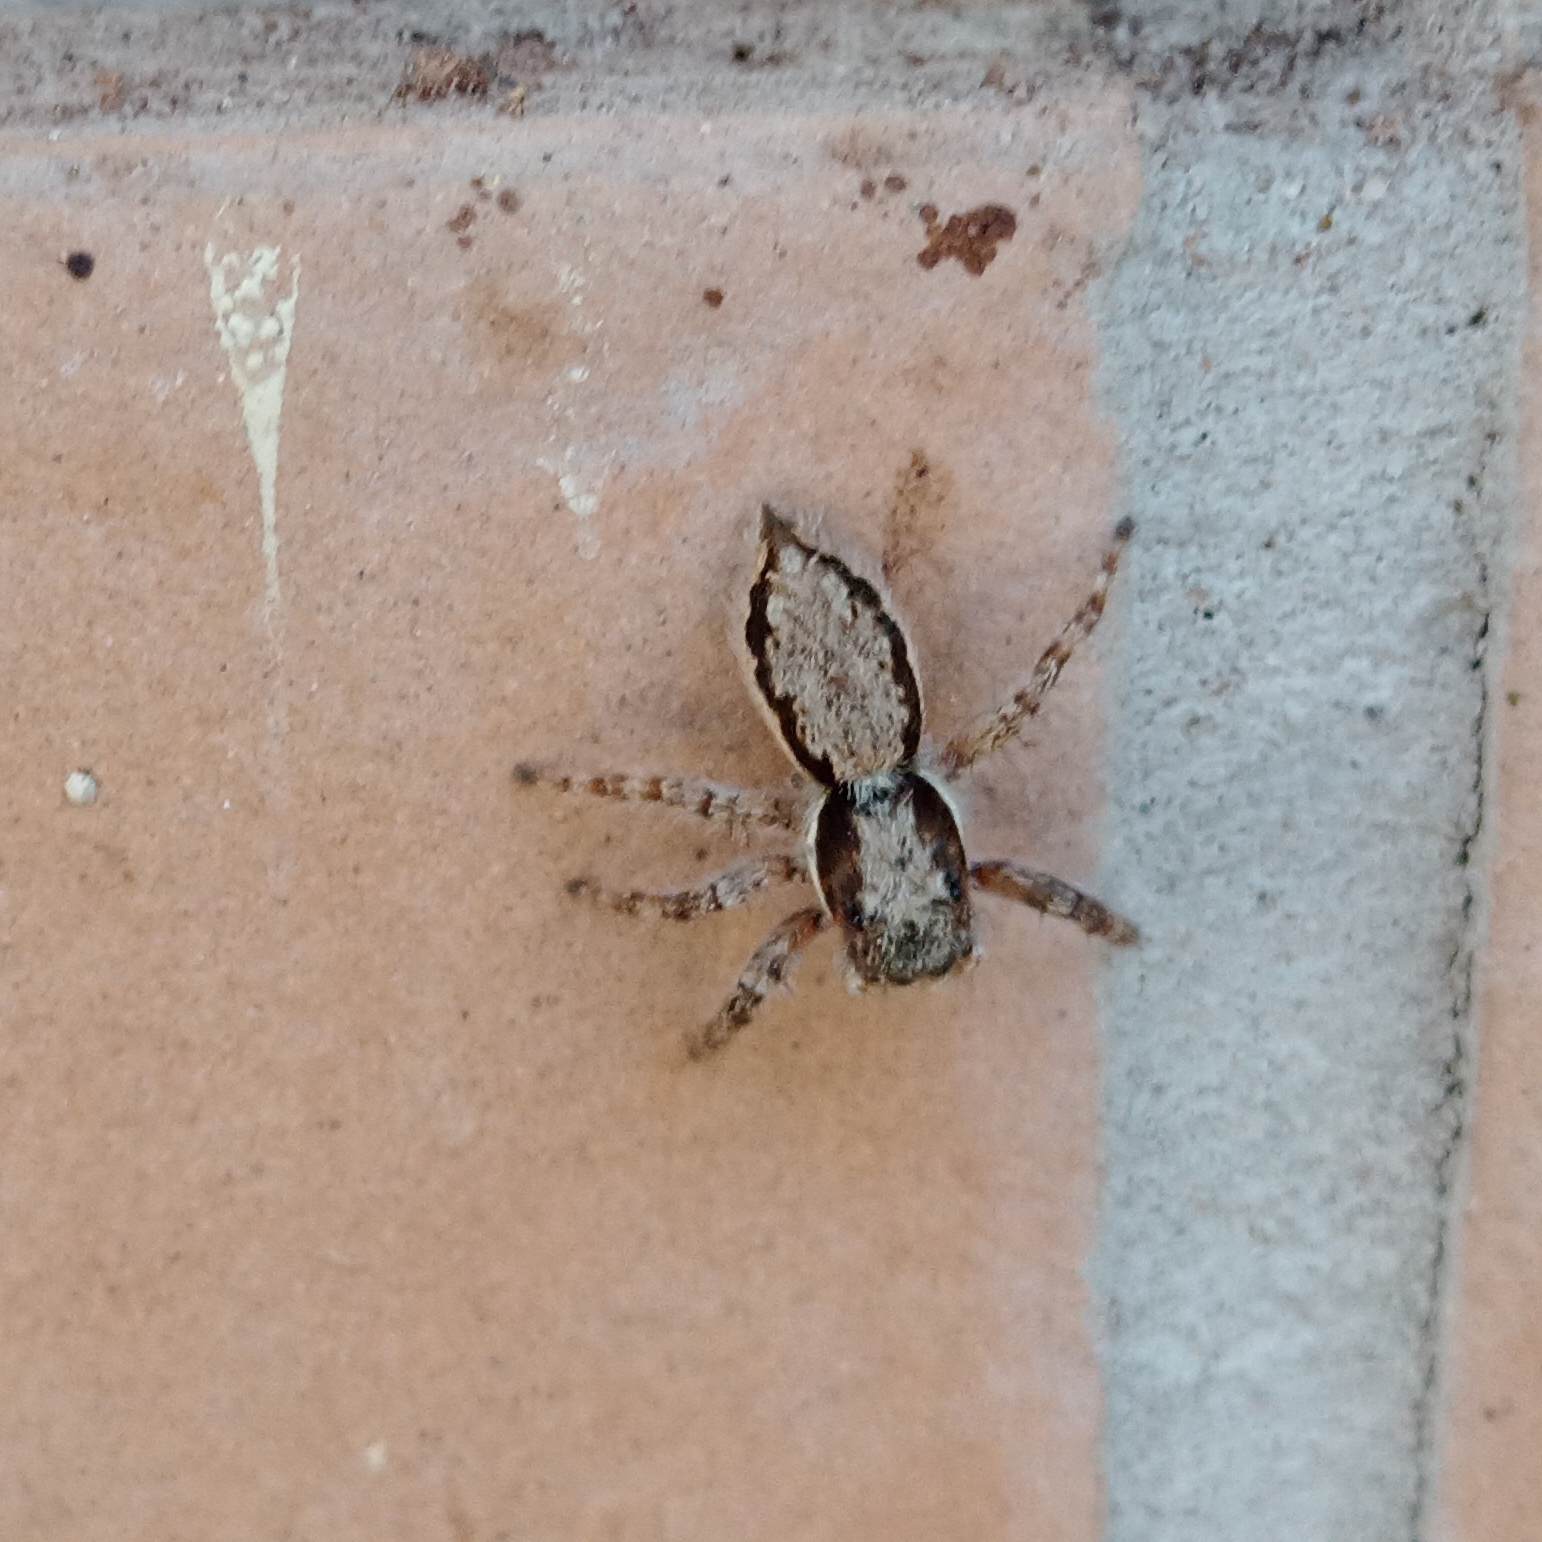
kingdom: Animalia
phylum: Arthropoda
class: Arachnida
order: Araneae
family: Salticidae
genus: Menemerus
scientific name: Menemerus bivittatus
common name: Gray wall jumper
